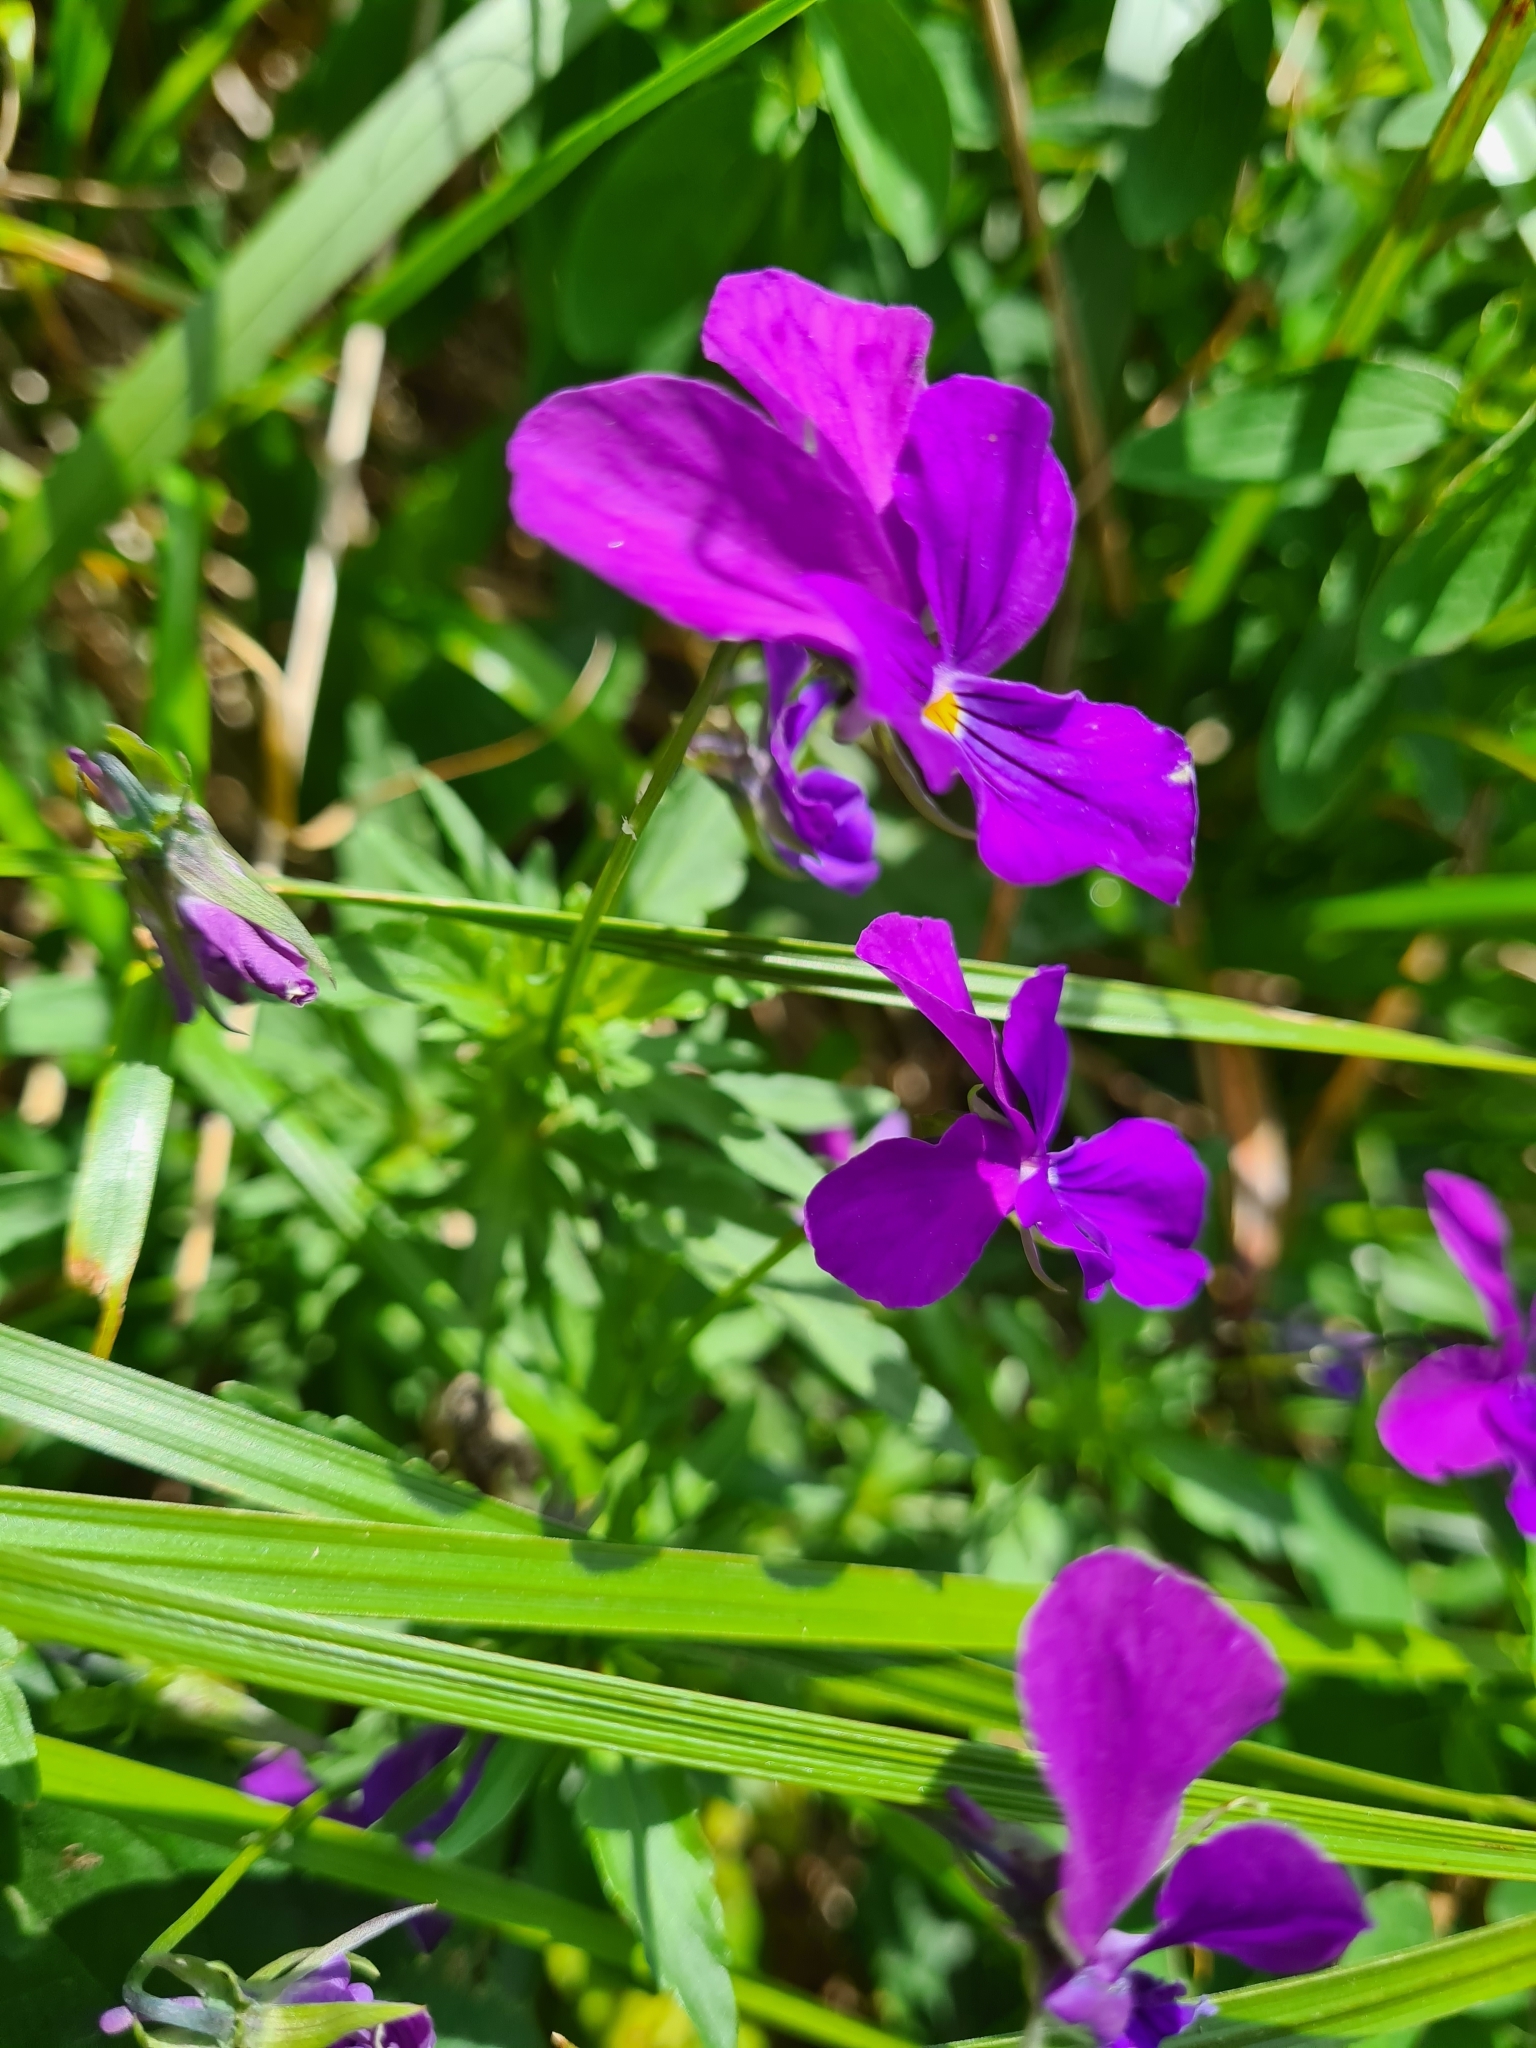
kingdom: Plantae
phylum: Tracheophyta
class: Magnoliopsida
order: Malpighiales
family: Violaceae
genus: Viola
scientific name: Viola dacica
